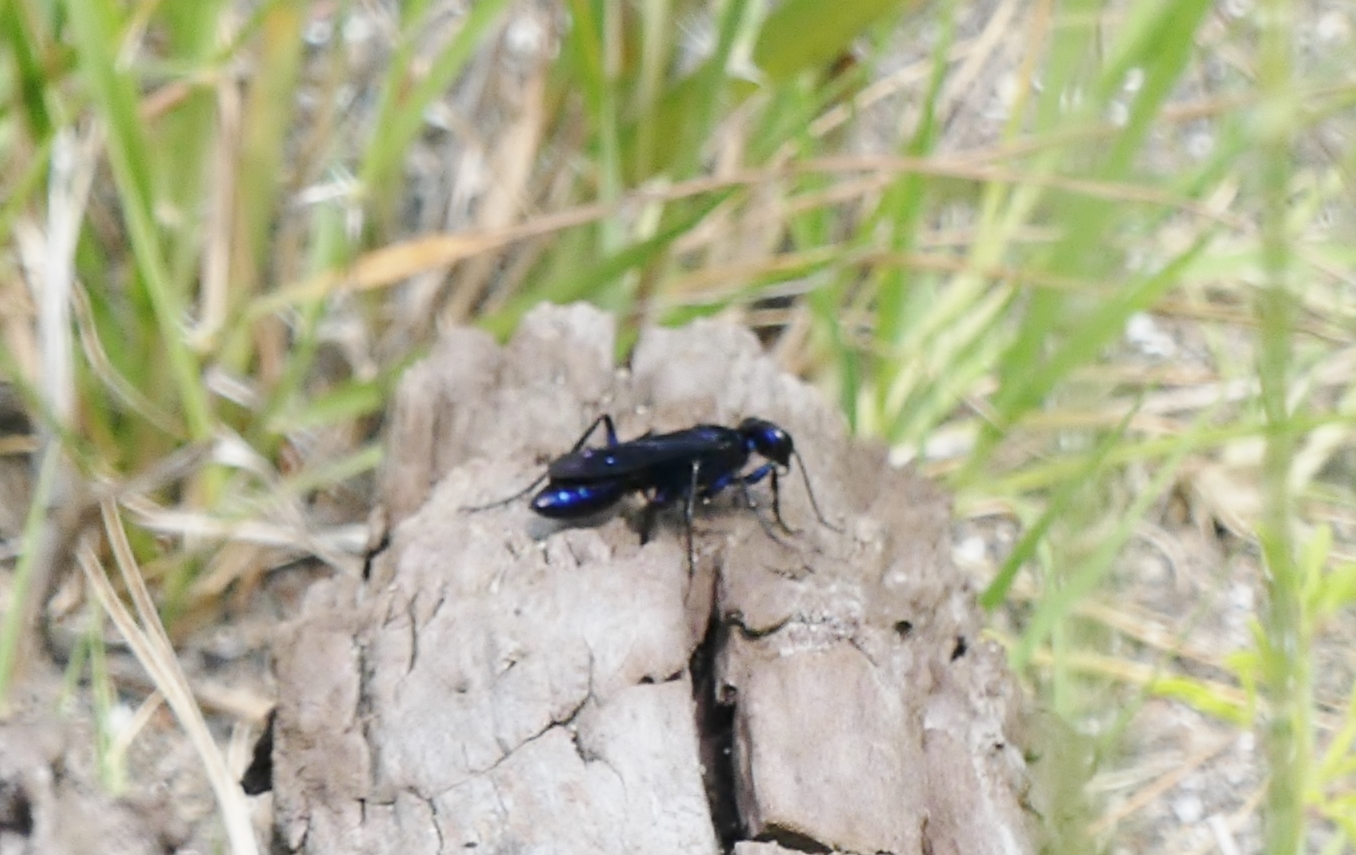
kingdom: Animalia
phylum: Arthropoda
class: Insecta
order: Hymenoptera
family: Sphecidae
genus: Chlorion
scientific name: Chlorion aerarium
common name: Steel-blue cricket hunter
